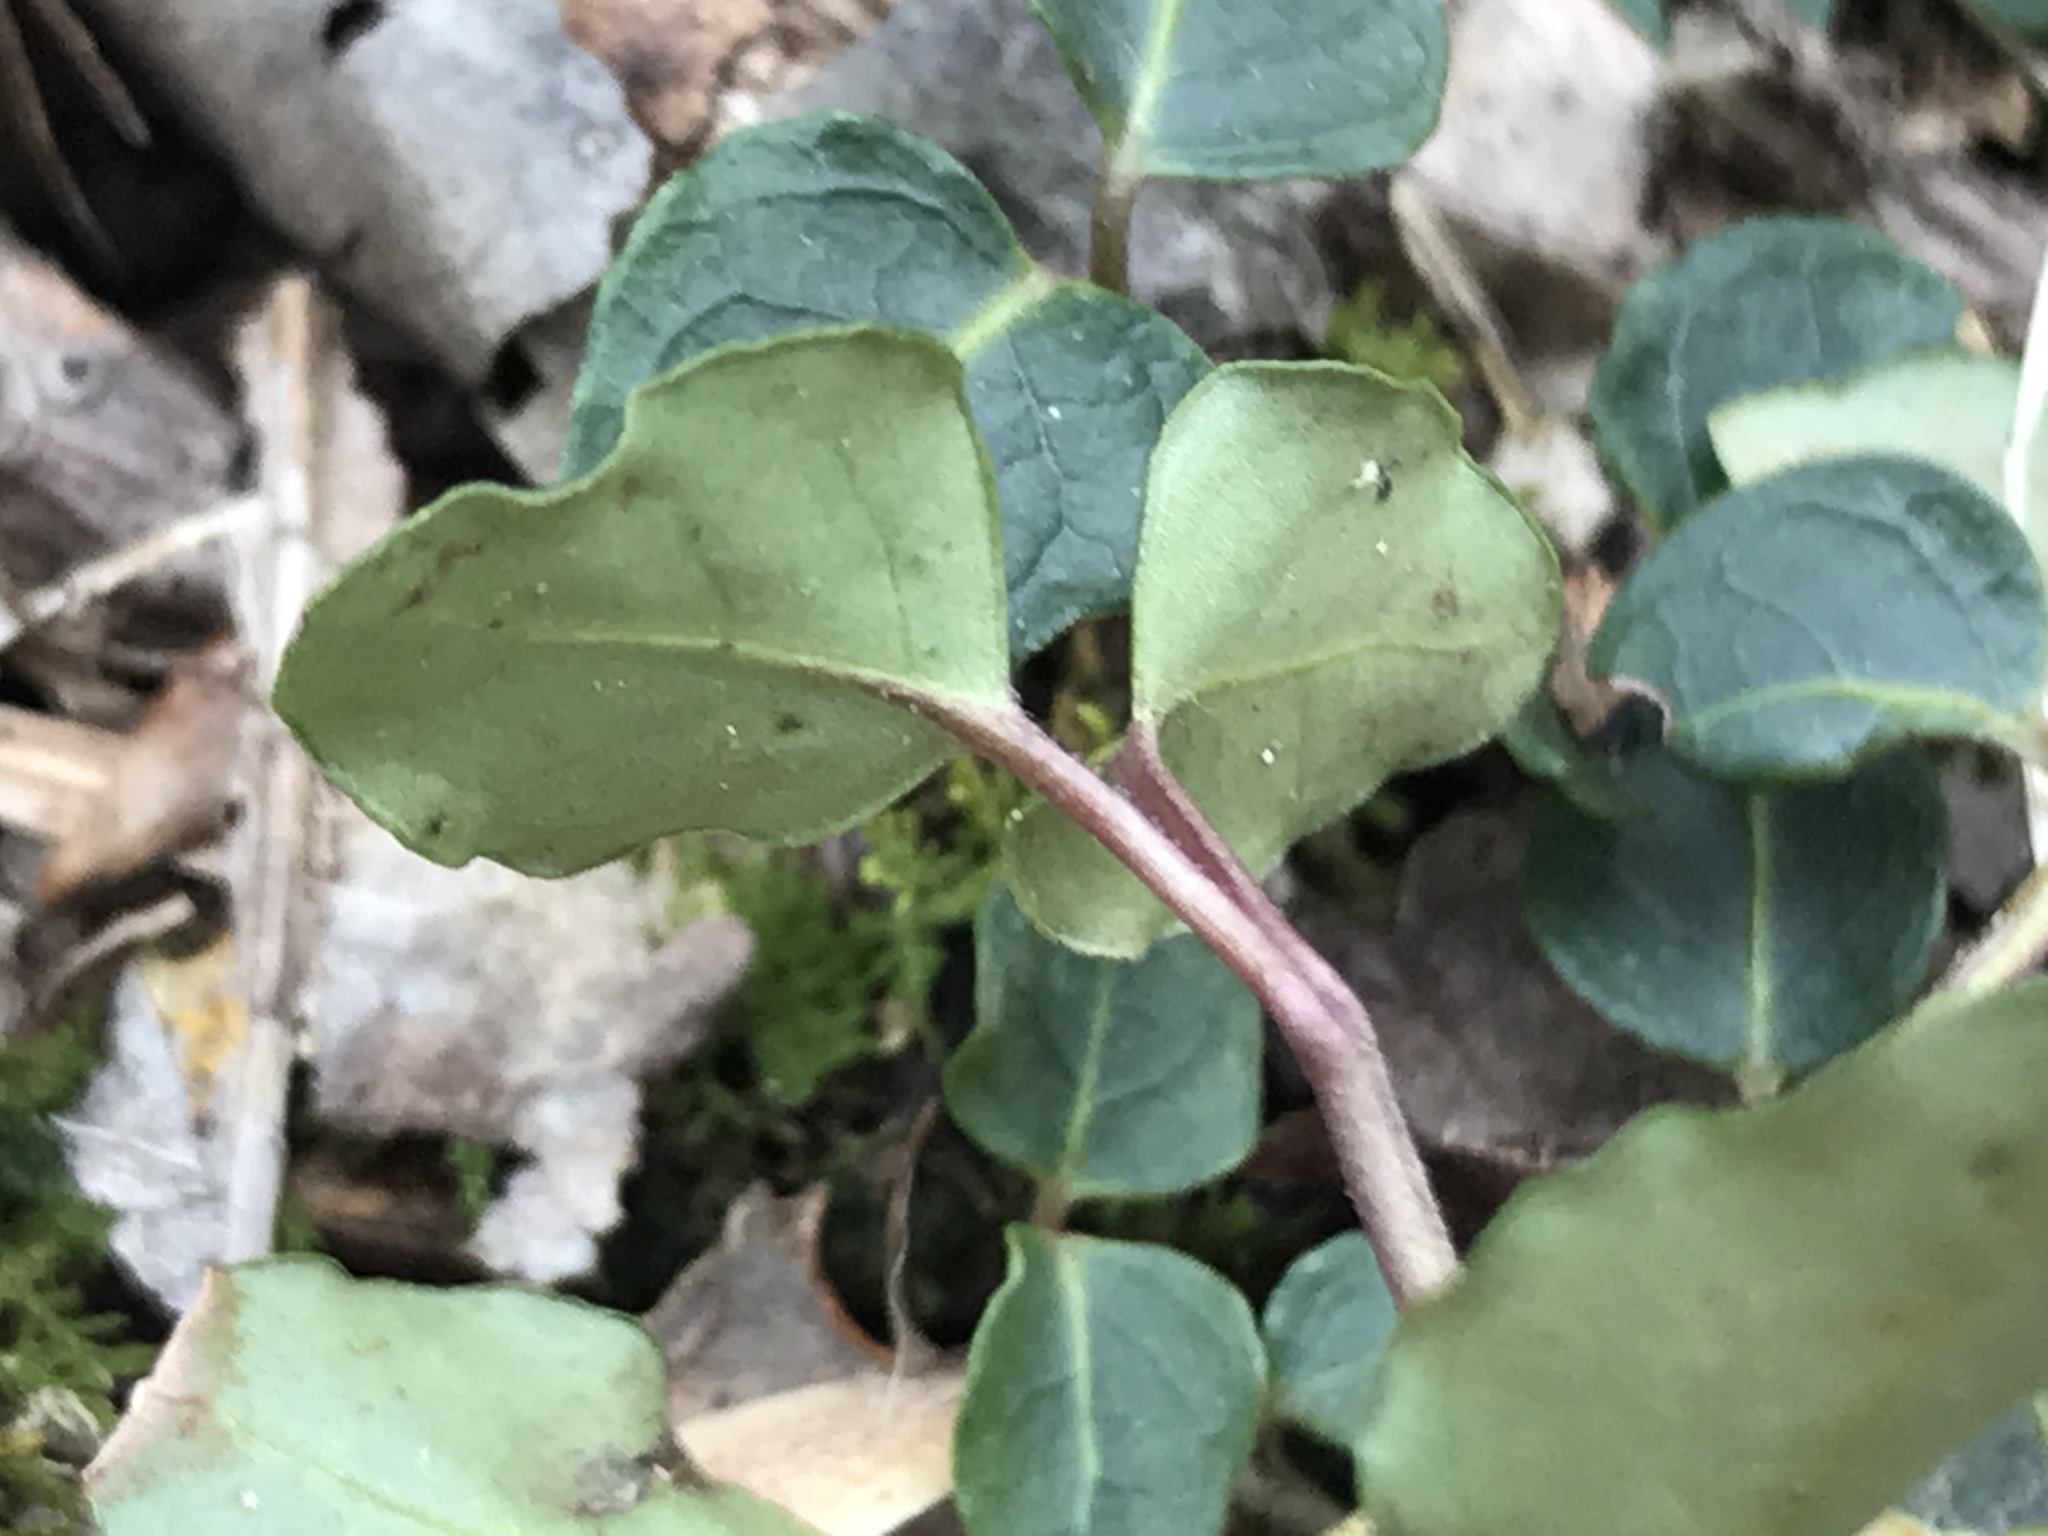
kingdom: Plantae
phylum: Tracheophyta
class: Magnoliopsida
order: Gentianales
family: Rubiaceae
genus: Mitchella
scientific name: Mitchella repens
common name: Partridge-berry
